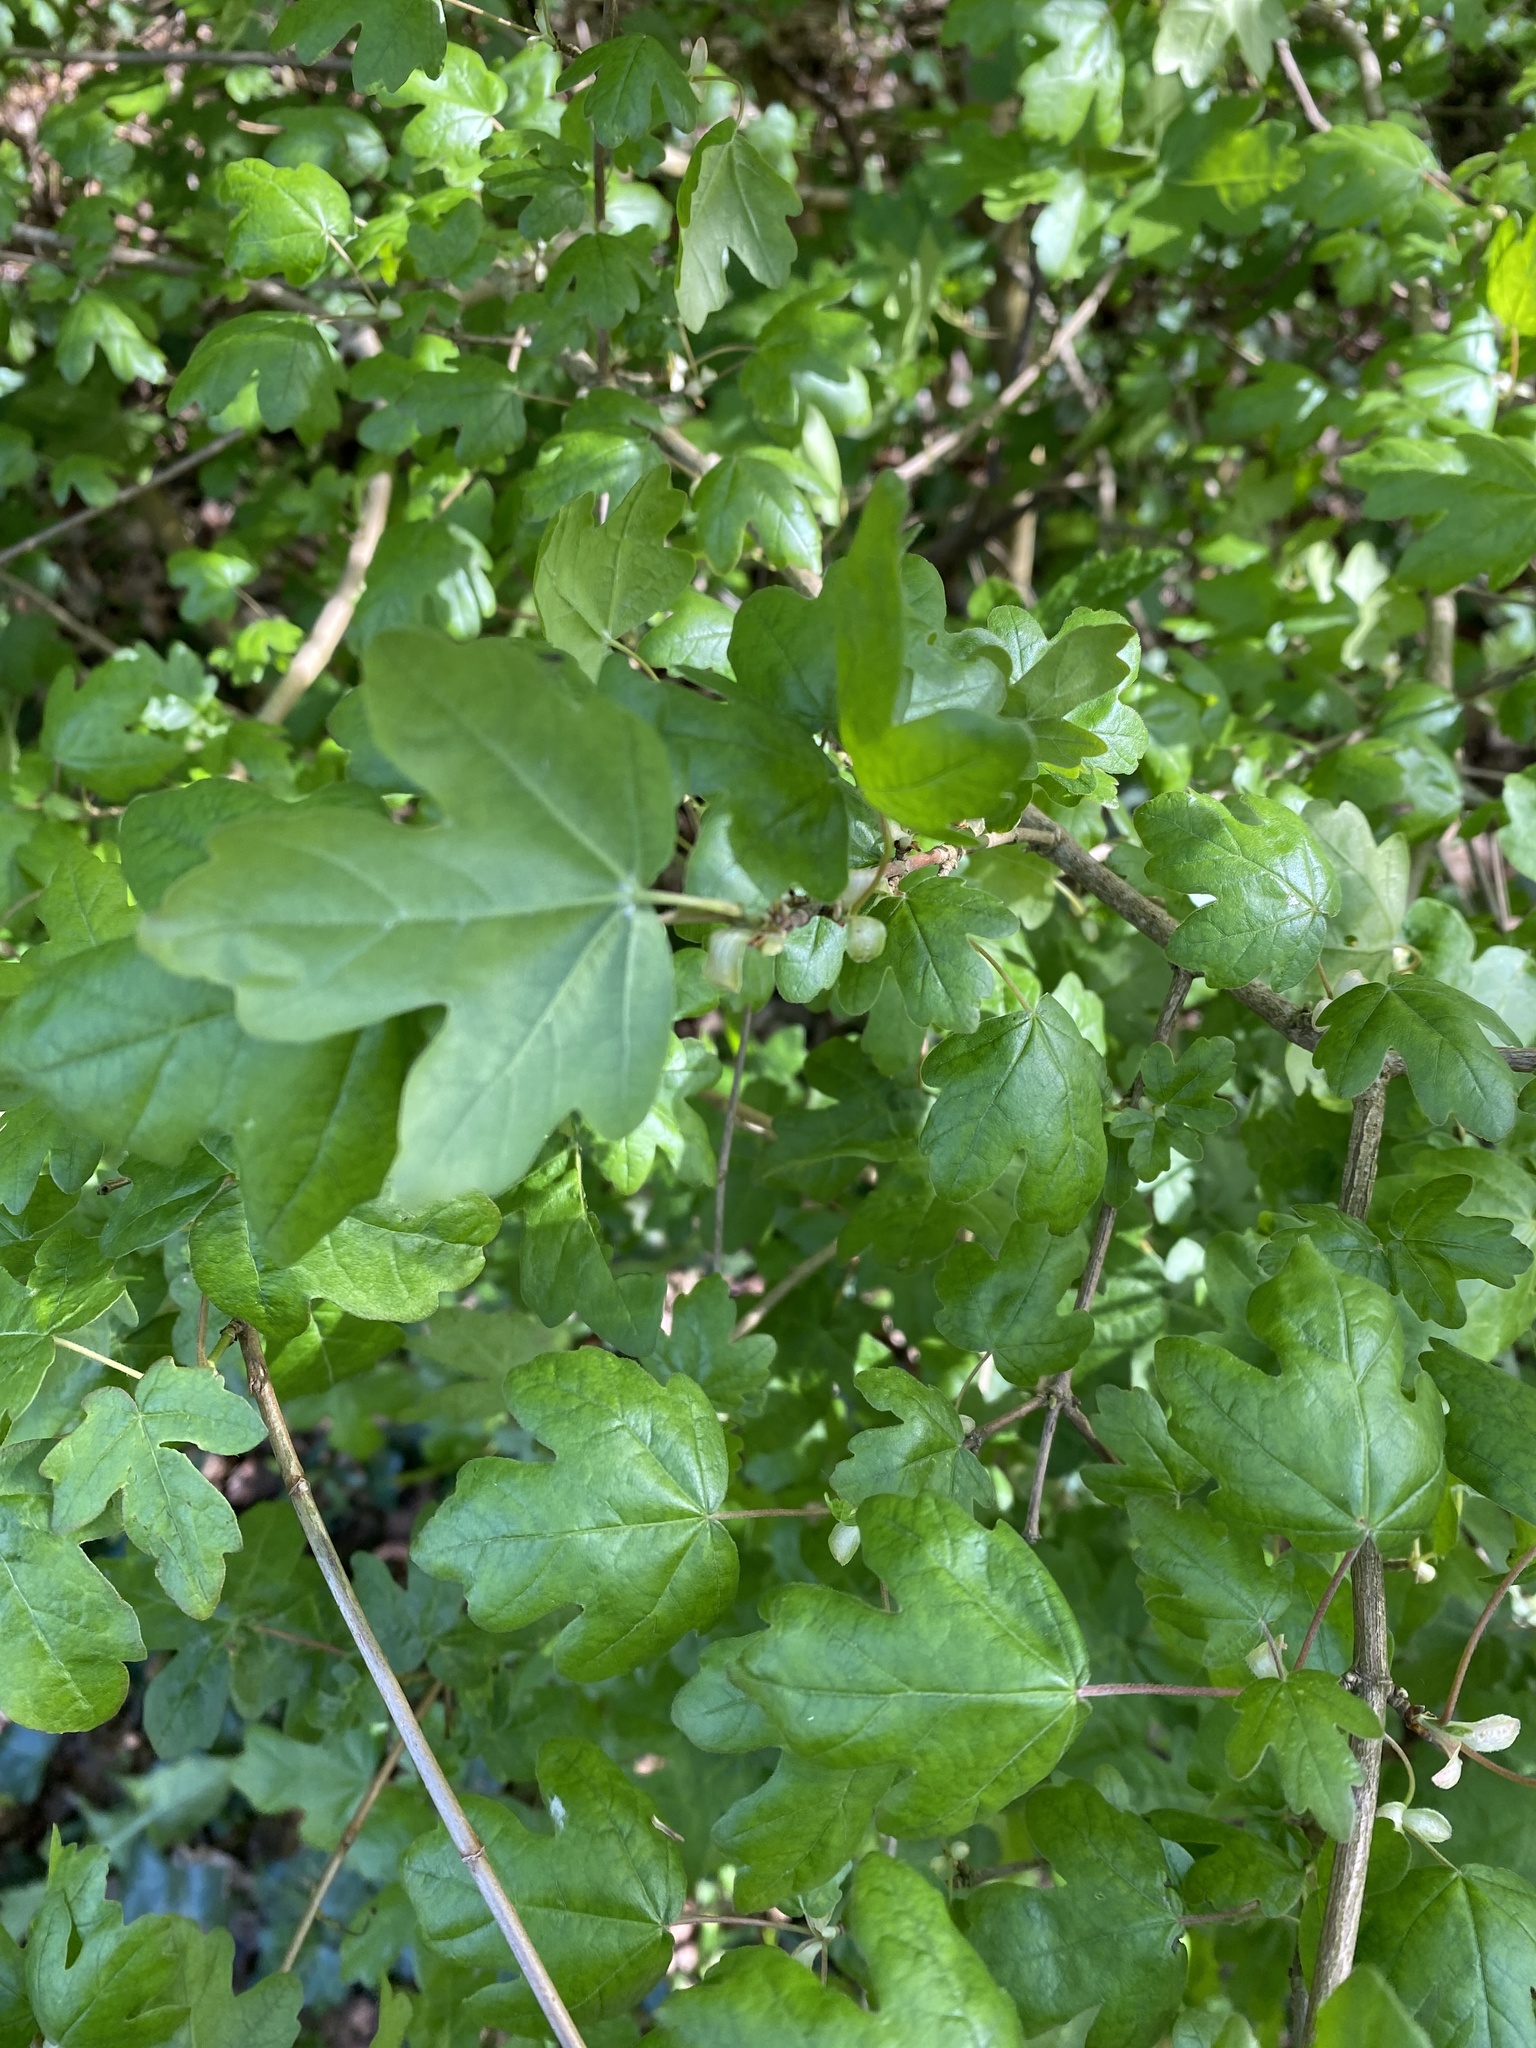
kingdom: Plantae
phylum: Tracheophyta
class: Magnoliopsida
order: Sapindales
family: Sapindaceae
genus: Acer
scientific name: Acer campestre
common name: Field maple
